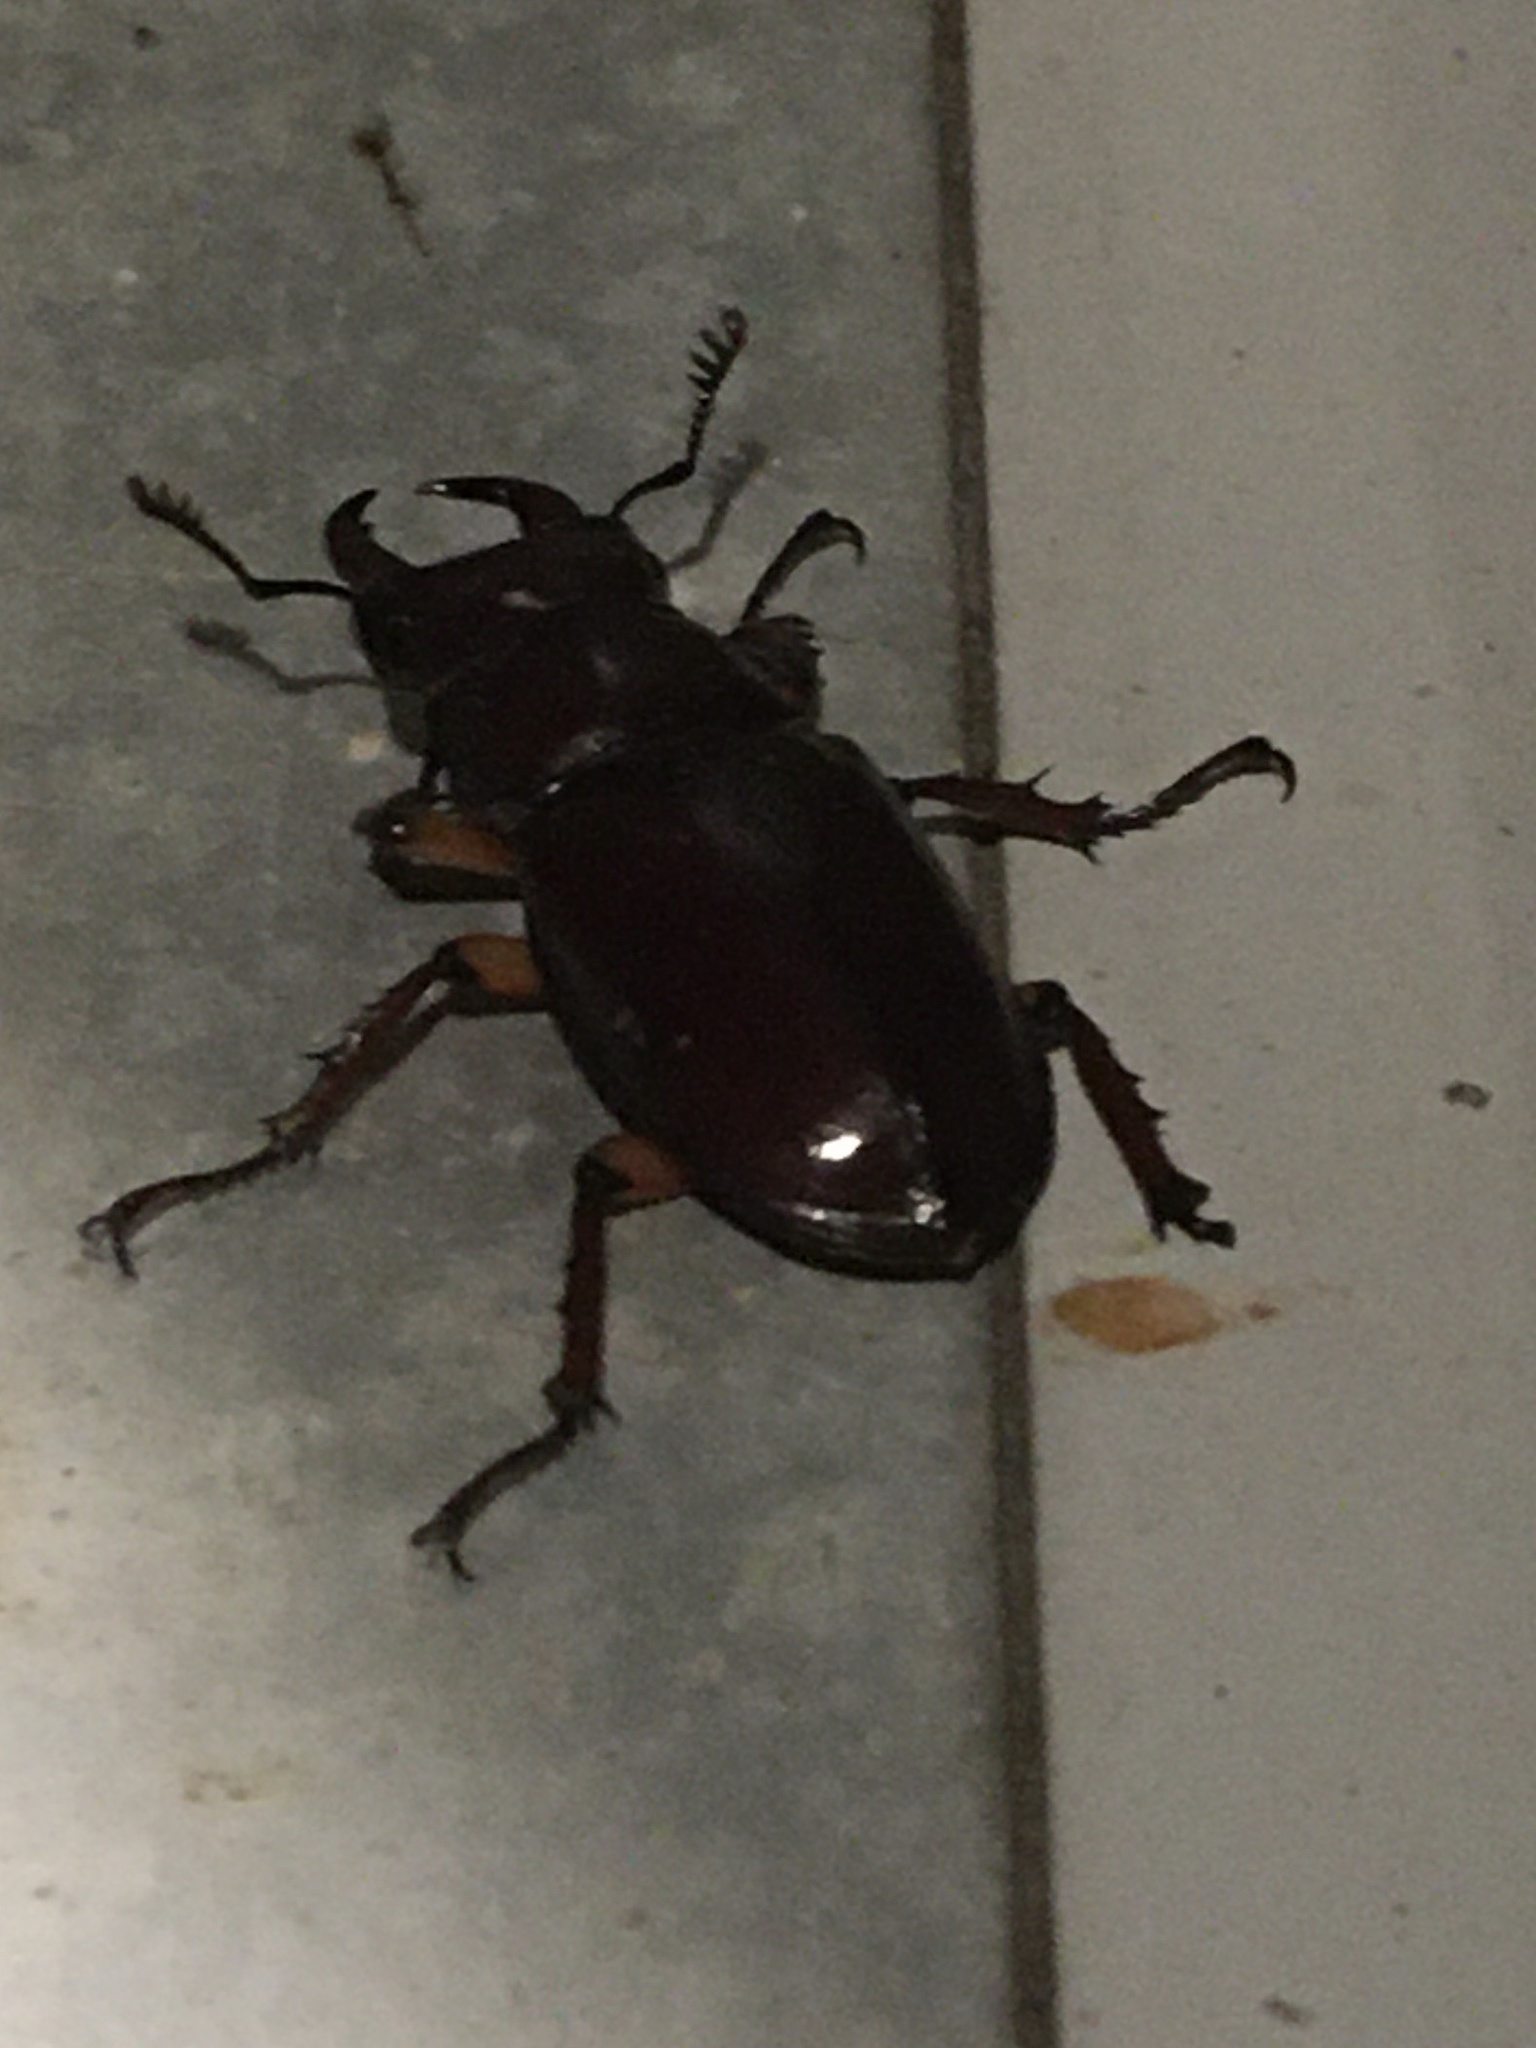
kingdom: Animalia
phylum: Arthropoda
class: Insecta
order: Coleoptera
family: Lucanidae
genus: Lucanus
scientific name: Lucanus capreolus
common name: Stag beetle
